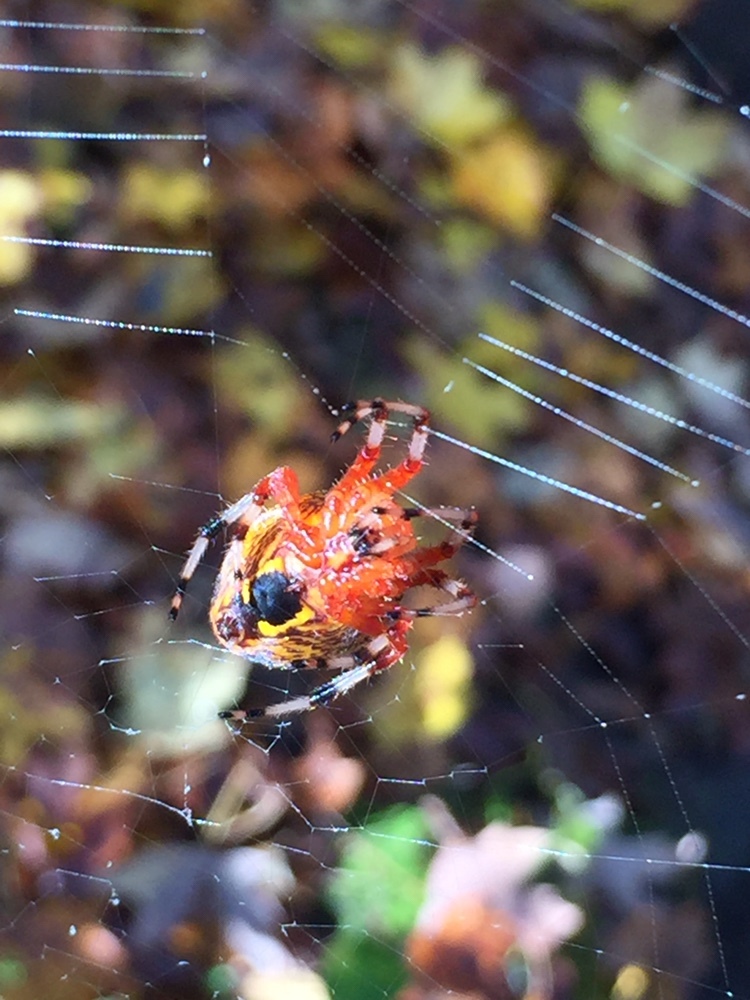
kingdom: Animalia
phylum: Arthropoda
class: Arachnida
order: Araneae
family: Araneidae
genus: Araneus
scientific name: Araneus marmoreus
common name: Marbled orbweaver
